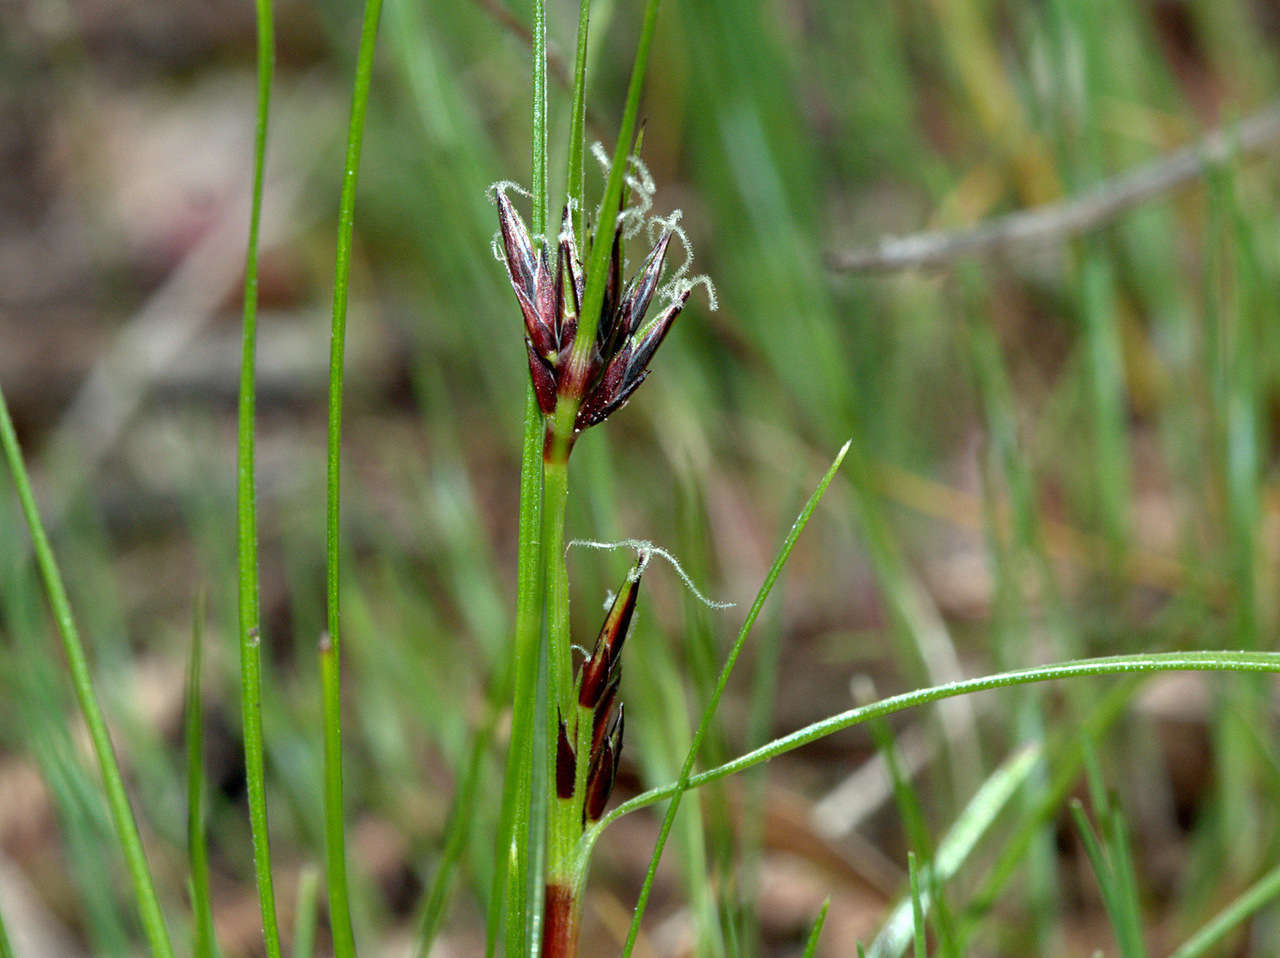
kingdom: Plantae
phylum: Tracheophyta
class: Liliopsida
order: Poales
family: Cyperaceae
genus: Schoenus
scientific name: Schoenus apogon
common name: Smooth bogrush
